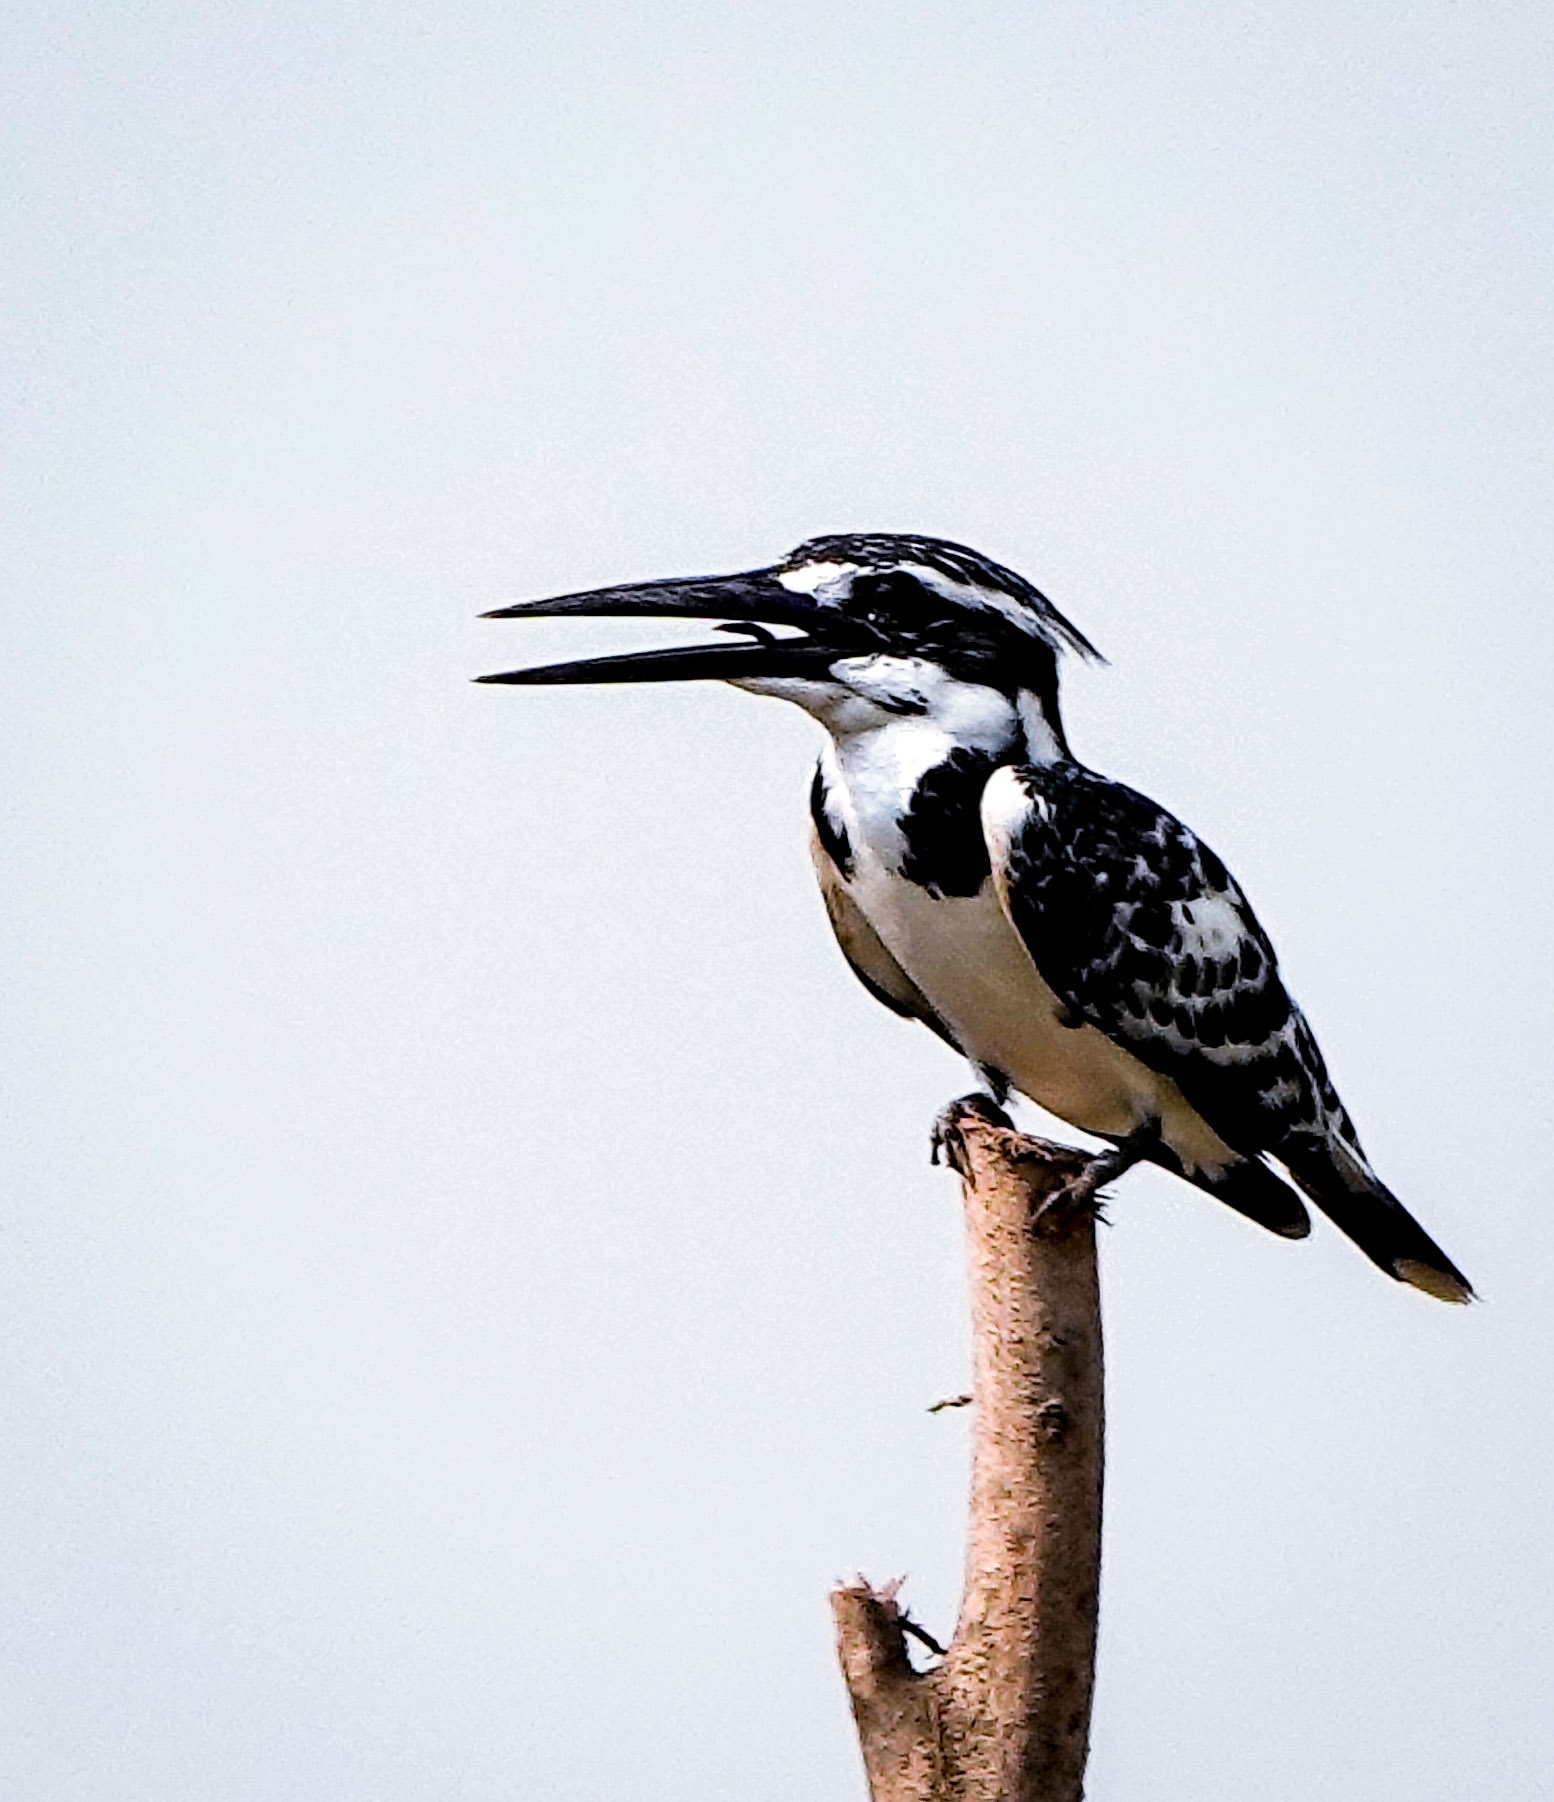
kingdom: Animalia
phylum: Chordata
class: Aves
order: Coraciiformes
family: Alcedinidae
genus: Ceryle
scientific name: Ceryle rudis
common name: Pied kingfisher
